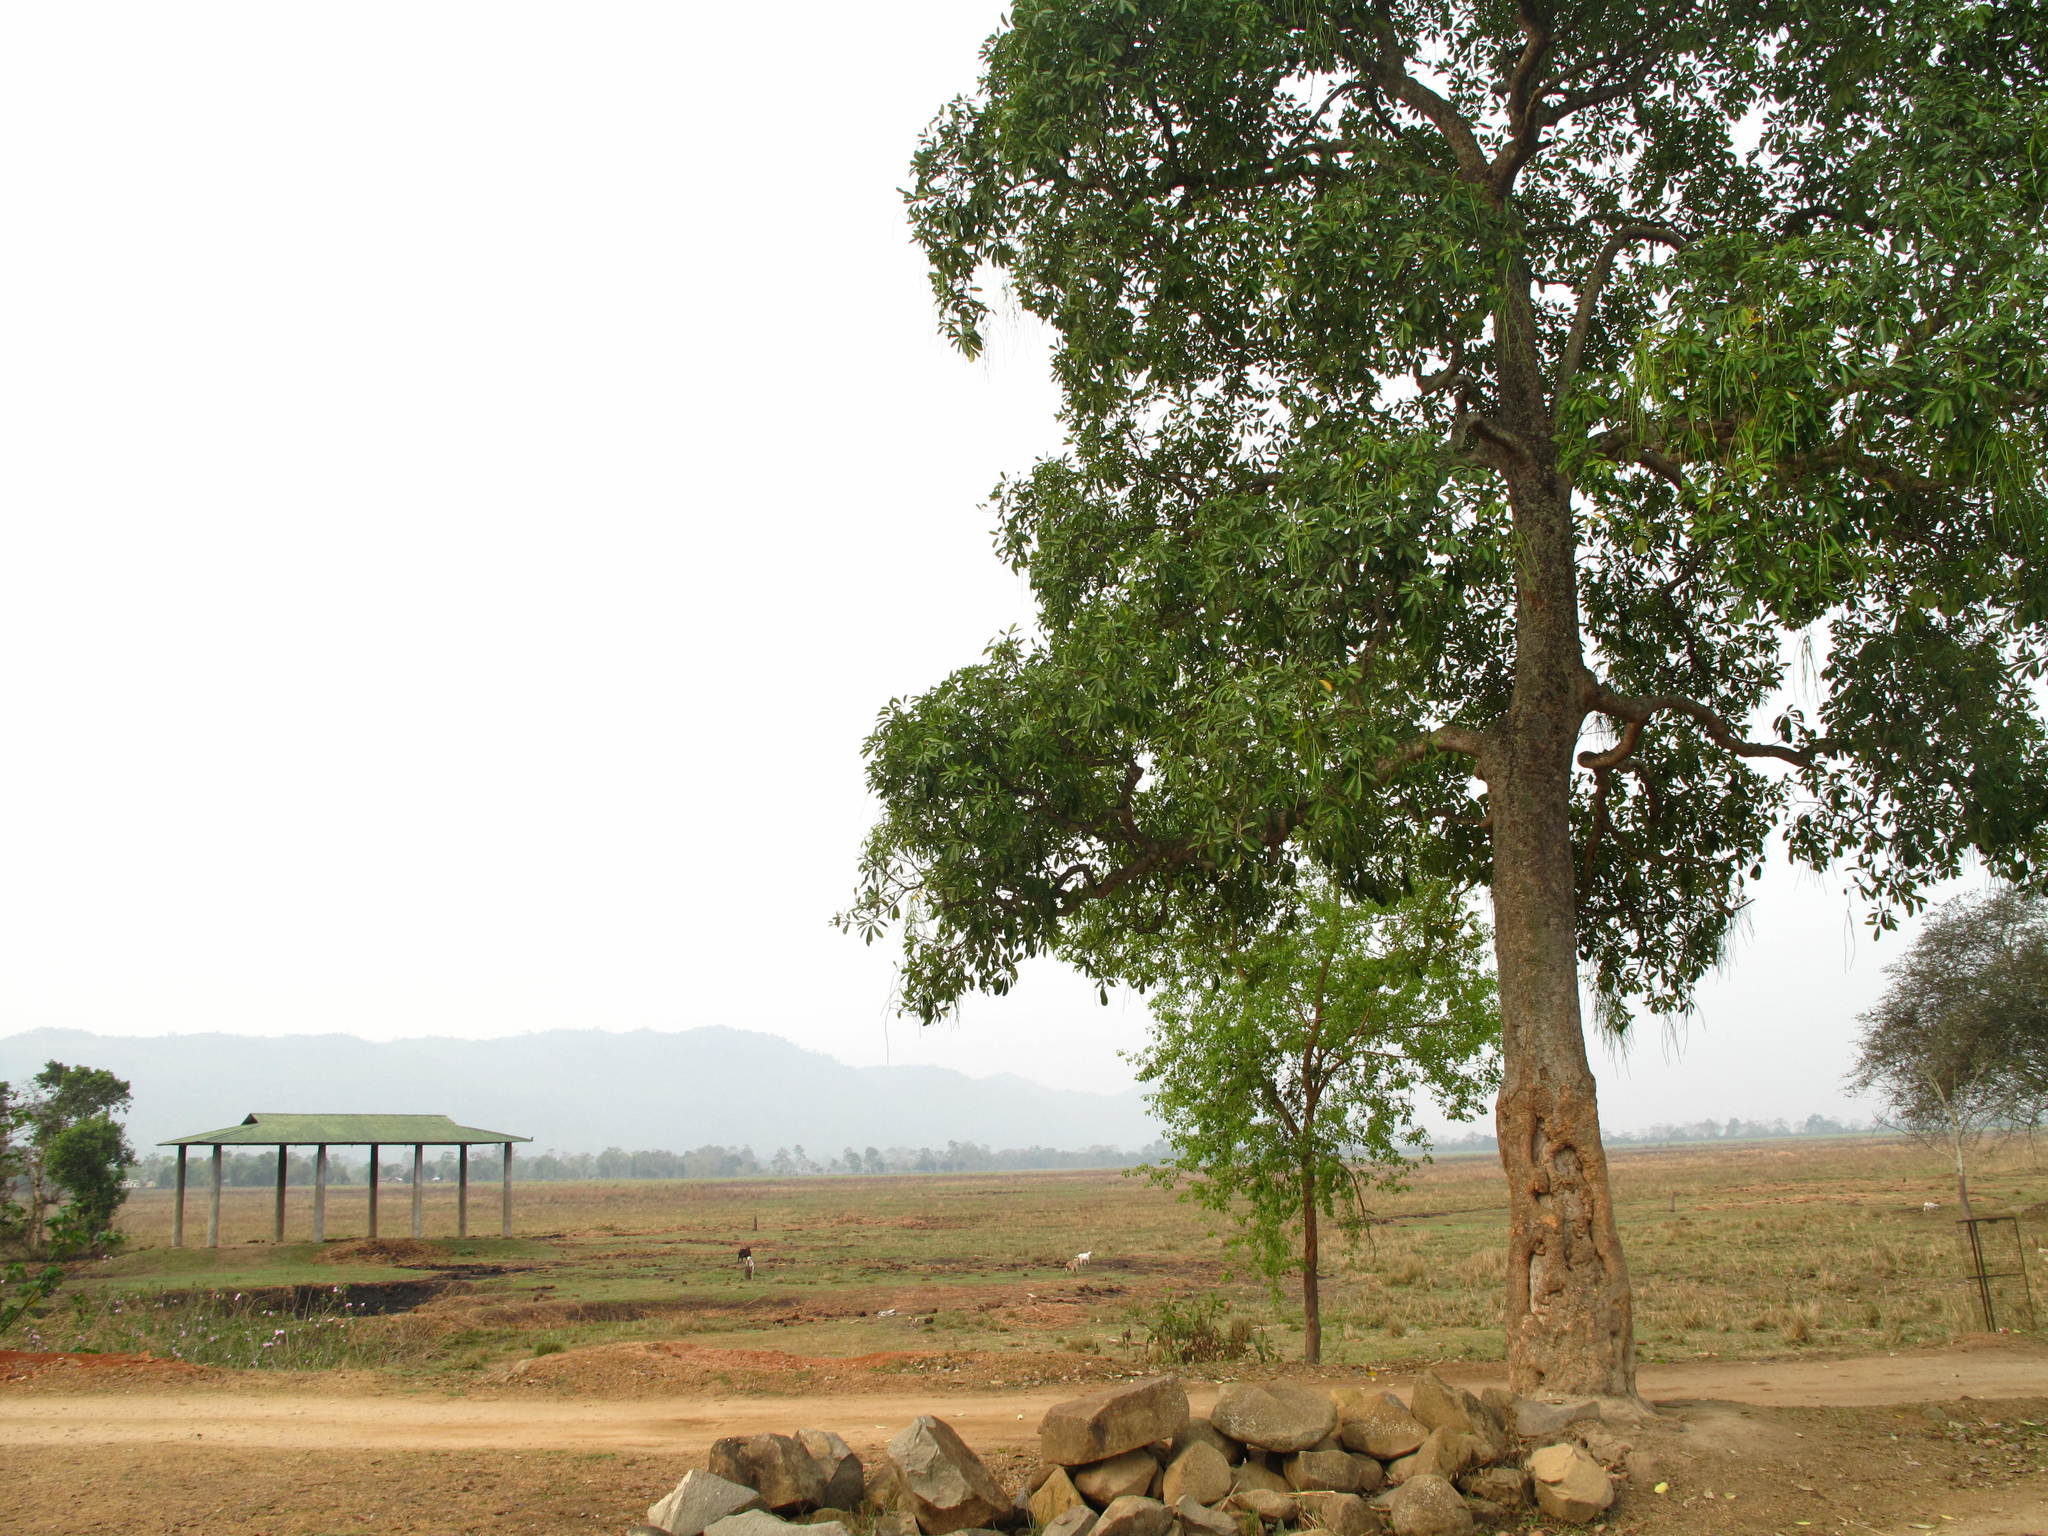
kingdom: Plantae
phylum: Tracheophyta
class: Magnoliopsida
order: Gentianales
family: Apocynaceae
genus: Alstonia
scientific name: Alstonia scholaris
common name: White cheesewood
